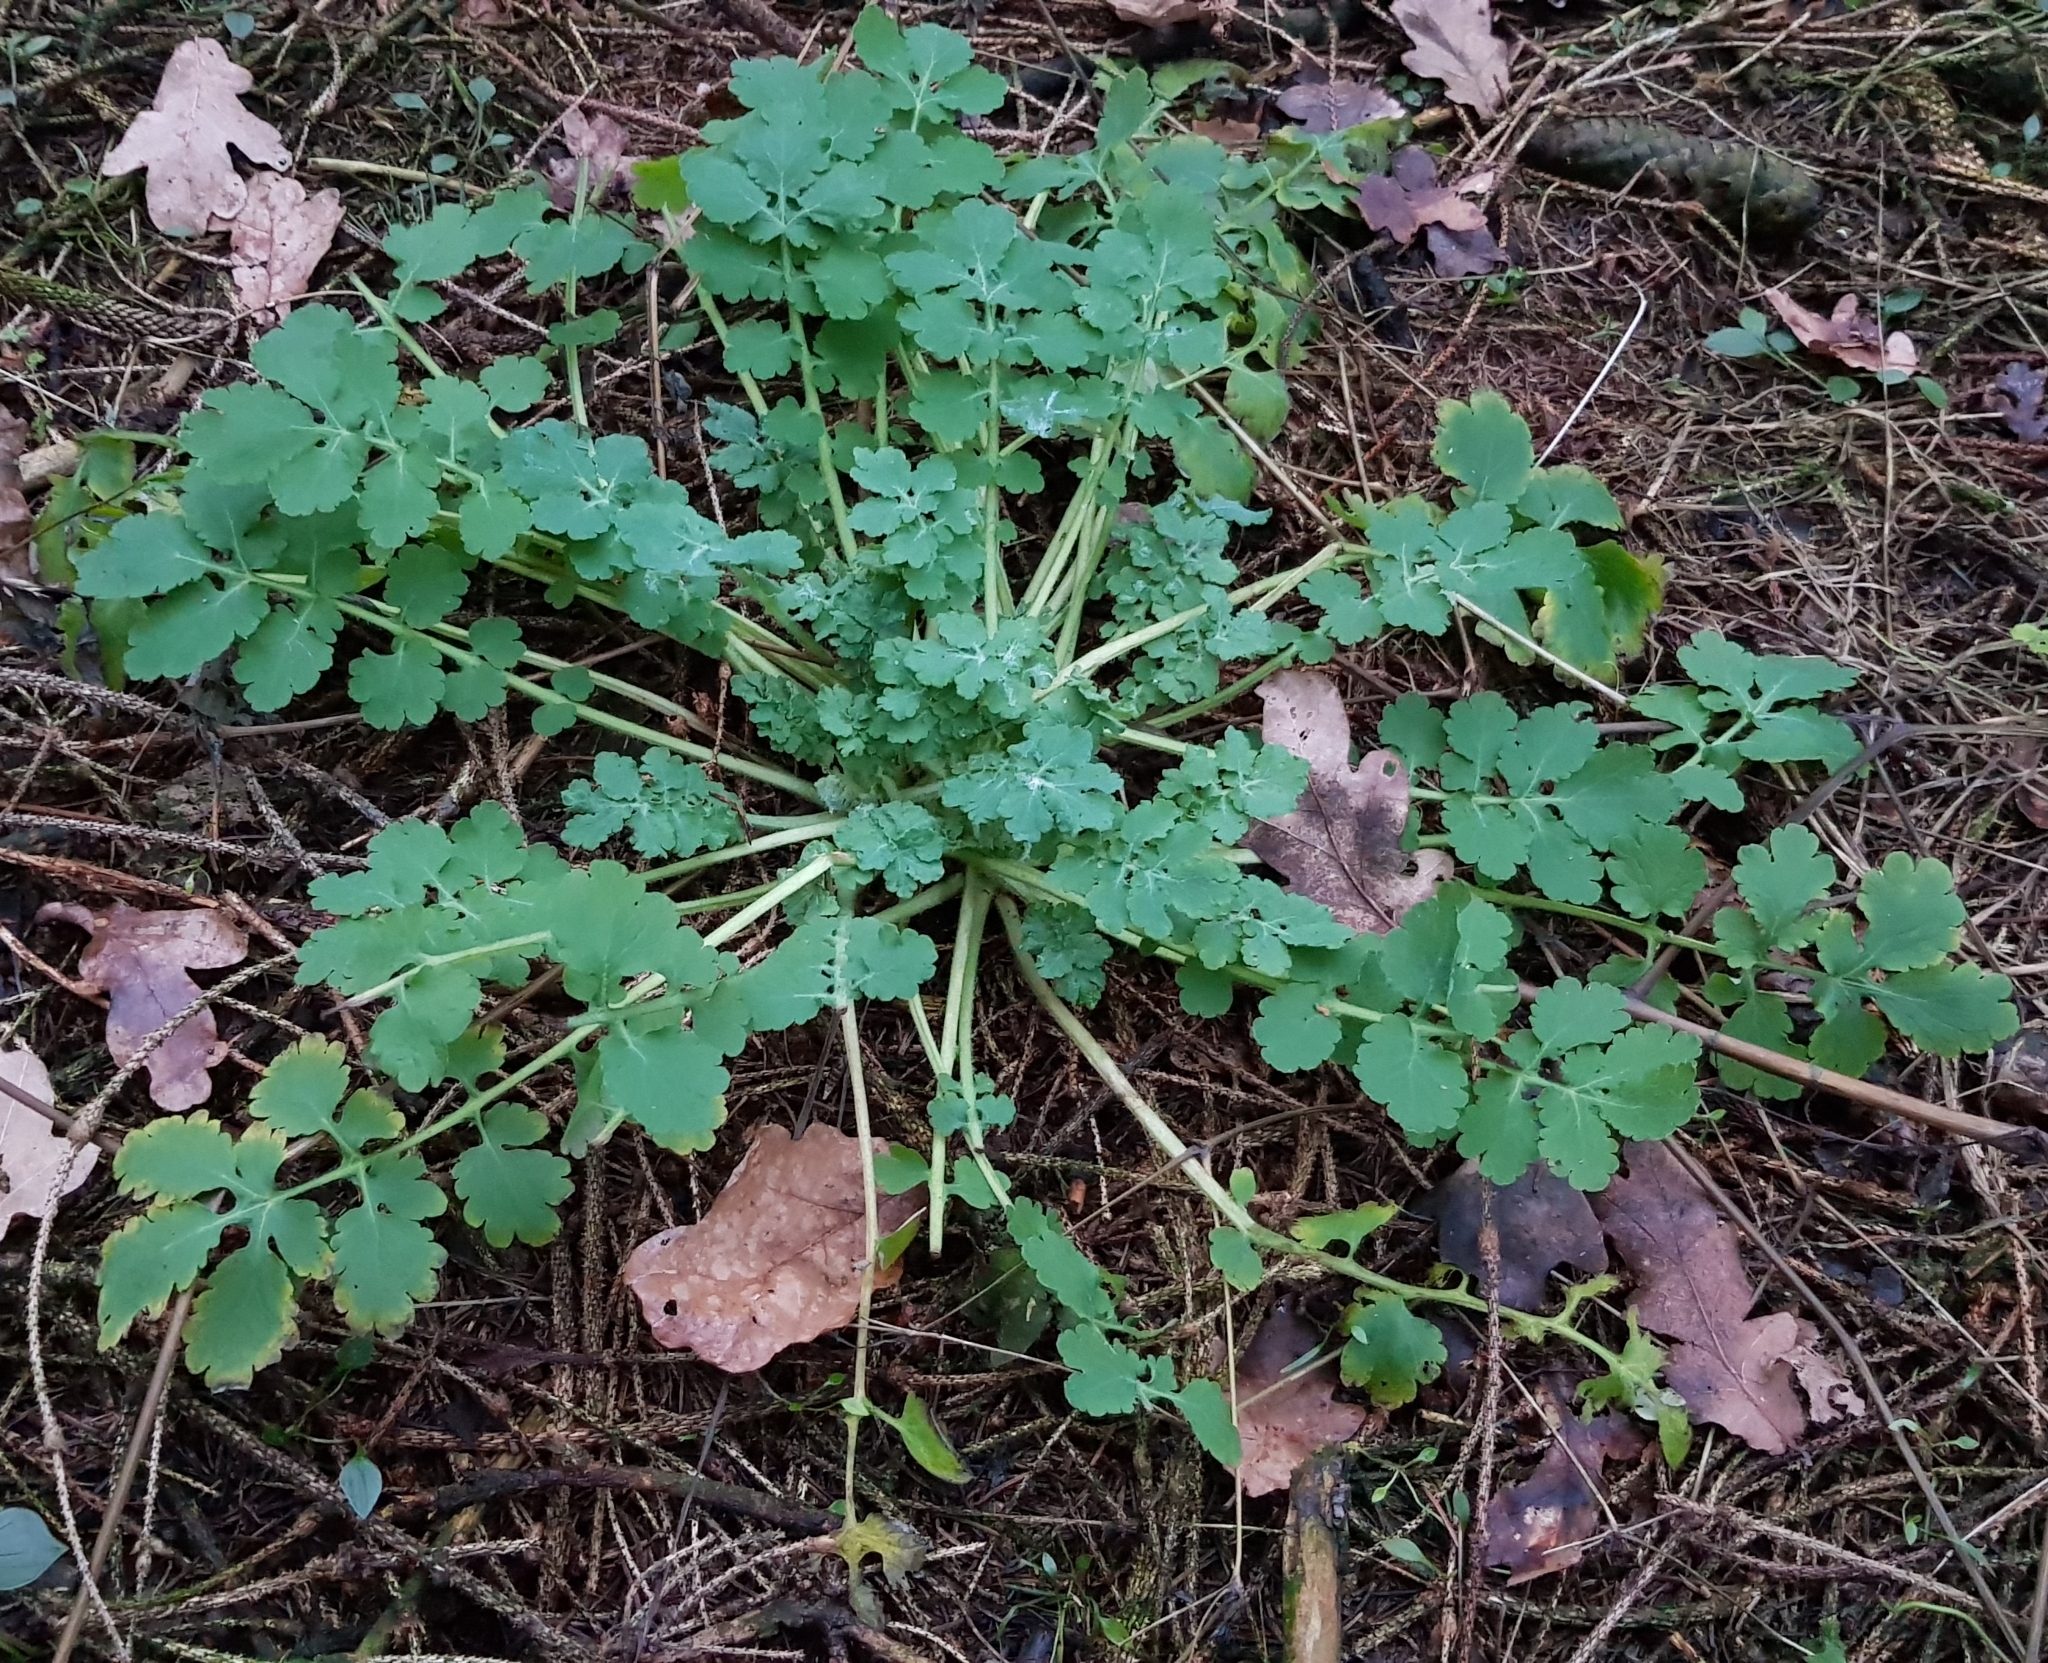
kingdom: Plantae
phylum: Tracheophyta
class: Magnoliopsida
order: Ranunculales
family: Papaveraceae
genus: Chelidonium
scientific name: Chelidonium majus
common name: Greater celandine
